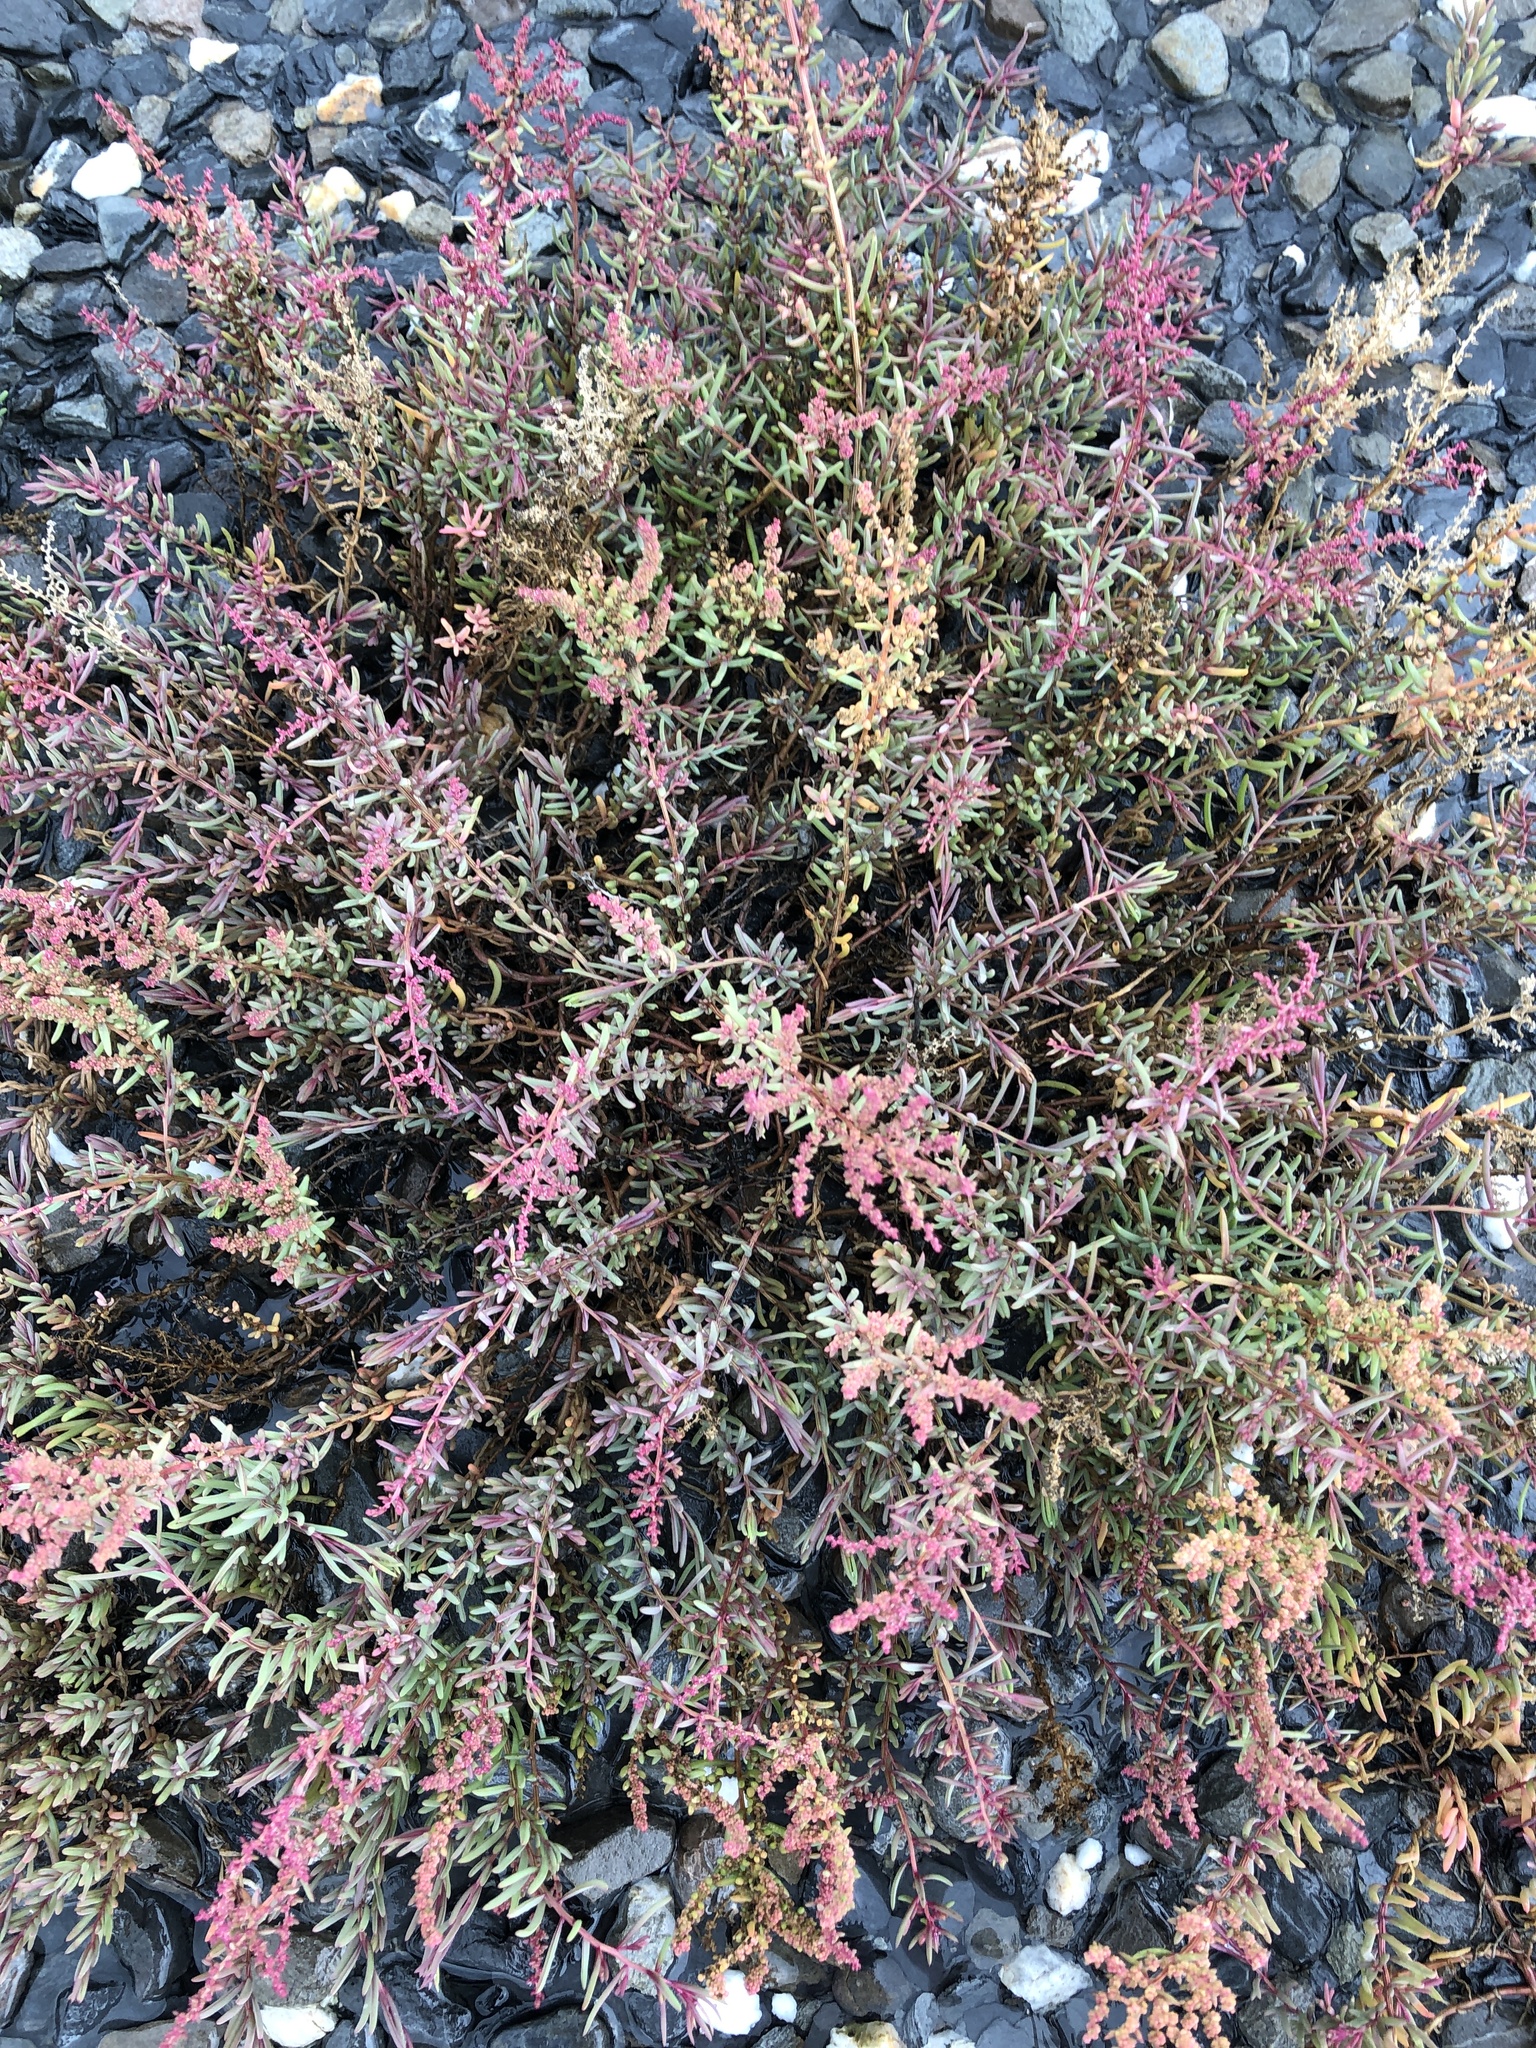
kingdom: Plantae
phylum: Tracheophyta
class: Magnoliopsida
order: Caryophyllales
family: Amaranthaceae
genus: Suaeda
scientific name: Suaeda maritima
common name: Annual sea-blite
